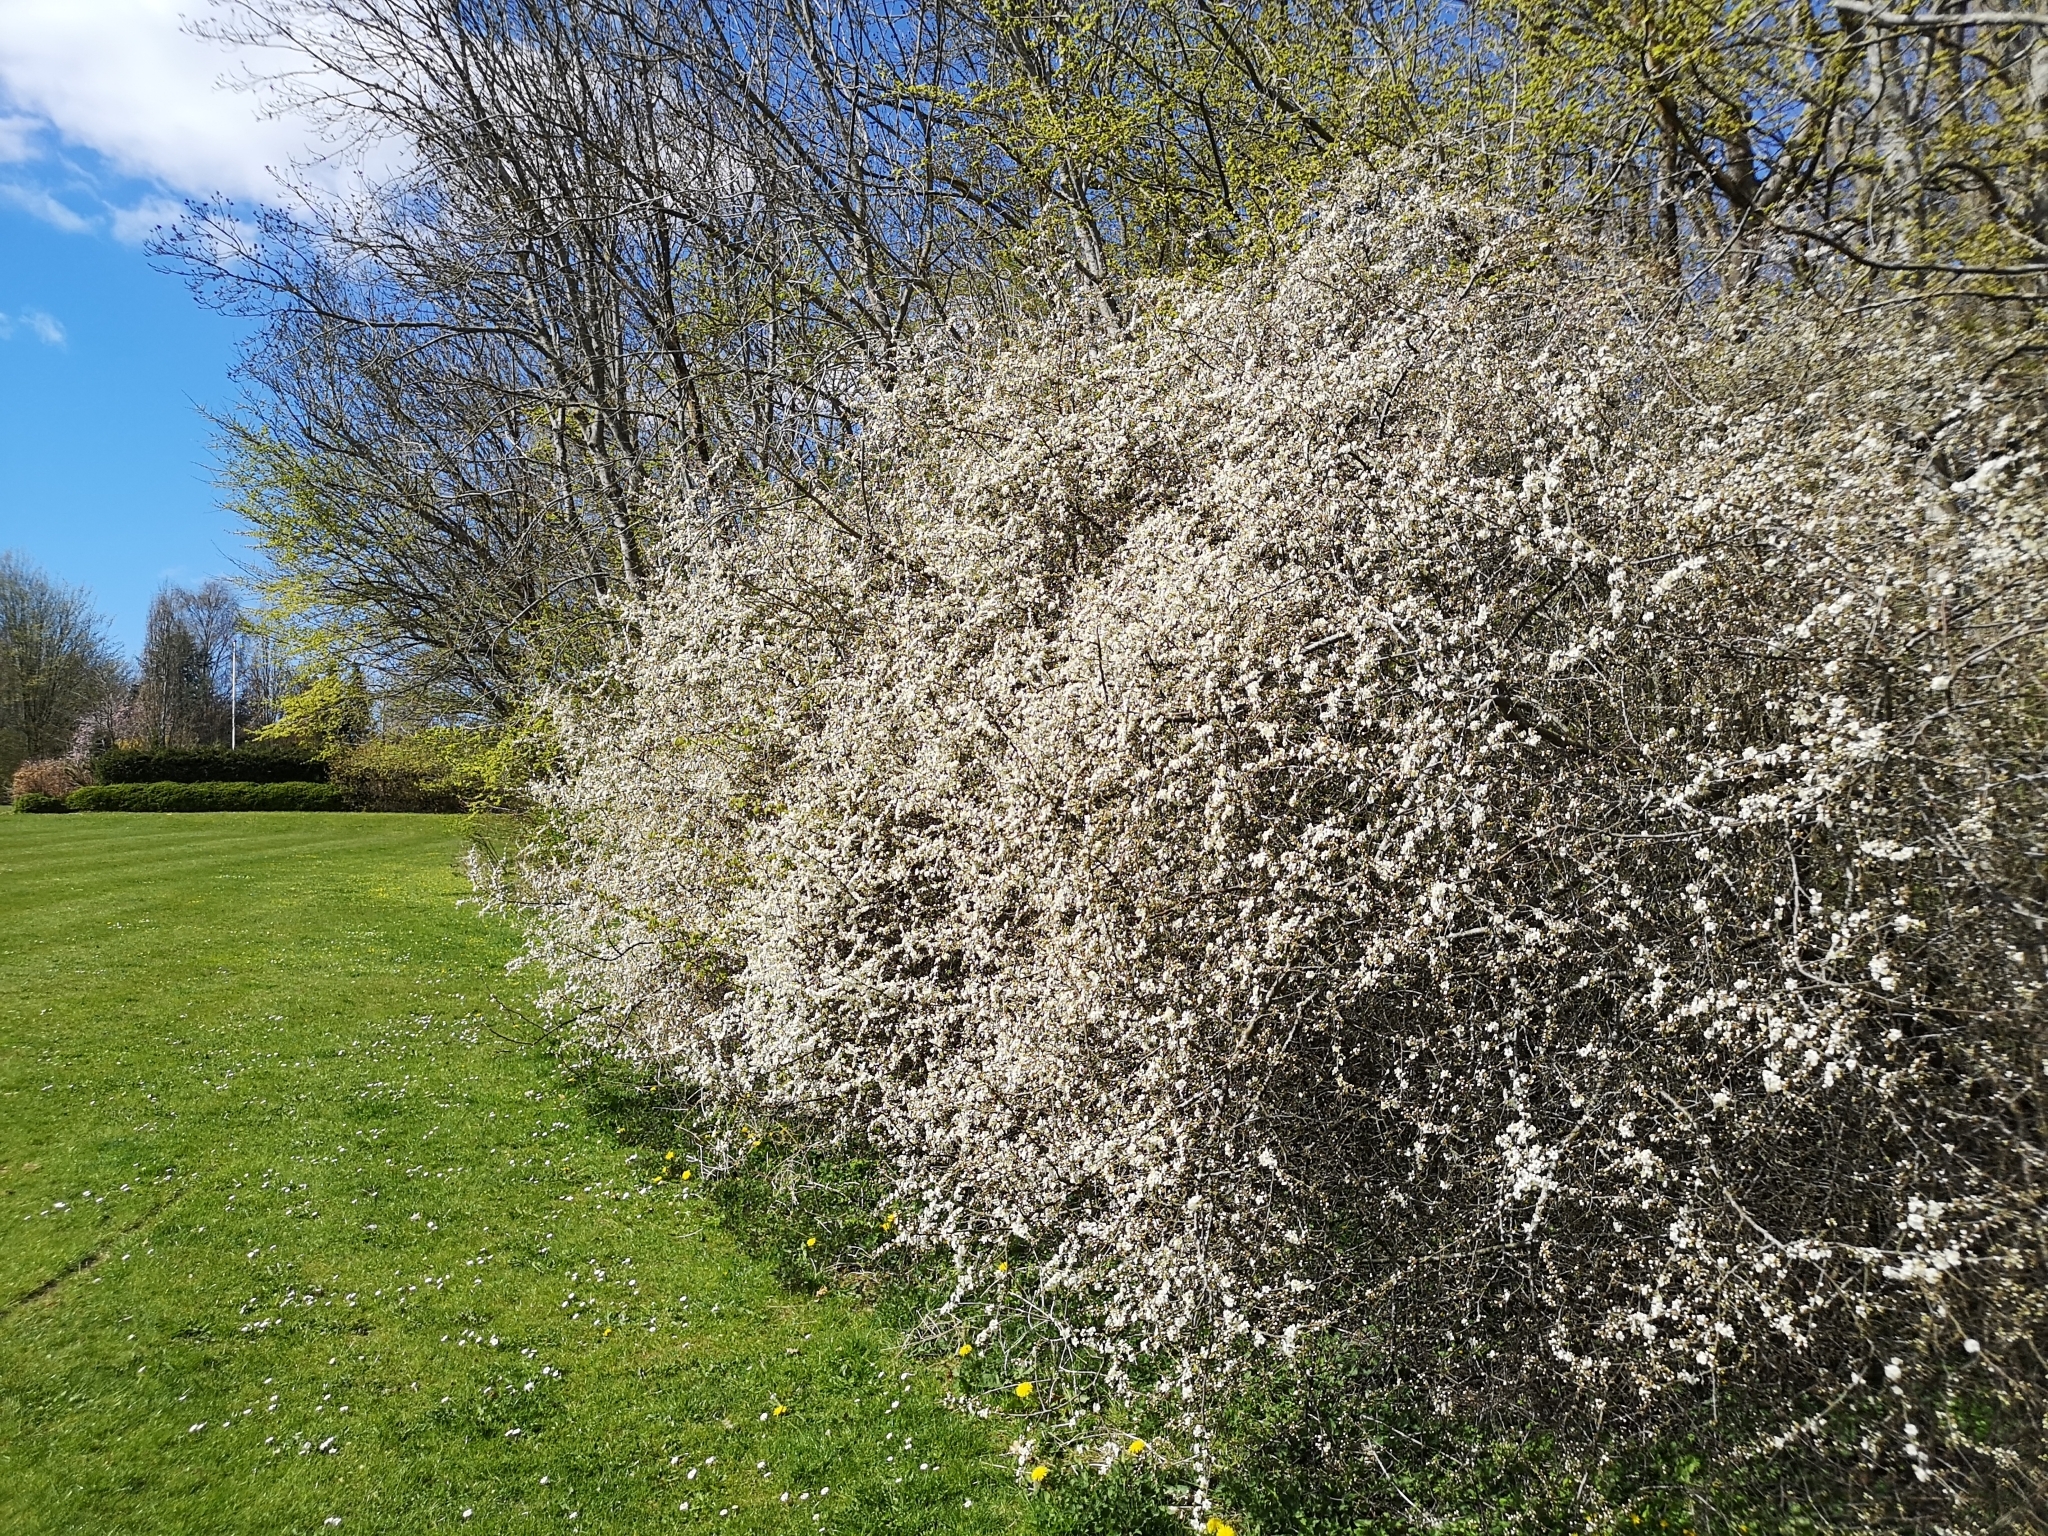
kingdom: Plantae
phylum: Tracheophyta
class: Magnoliopsida
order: Rosales
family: Rosaceae
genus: Prunus
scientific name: Prunus spinosa
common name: Blackthorn
